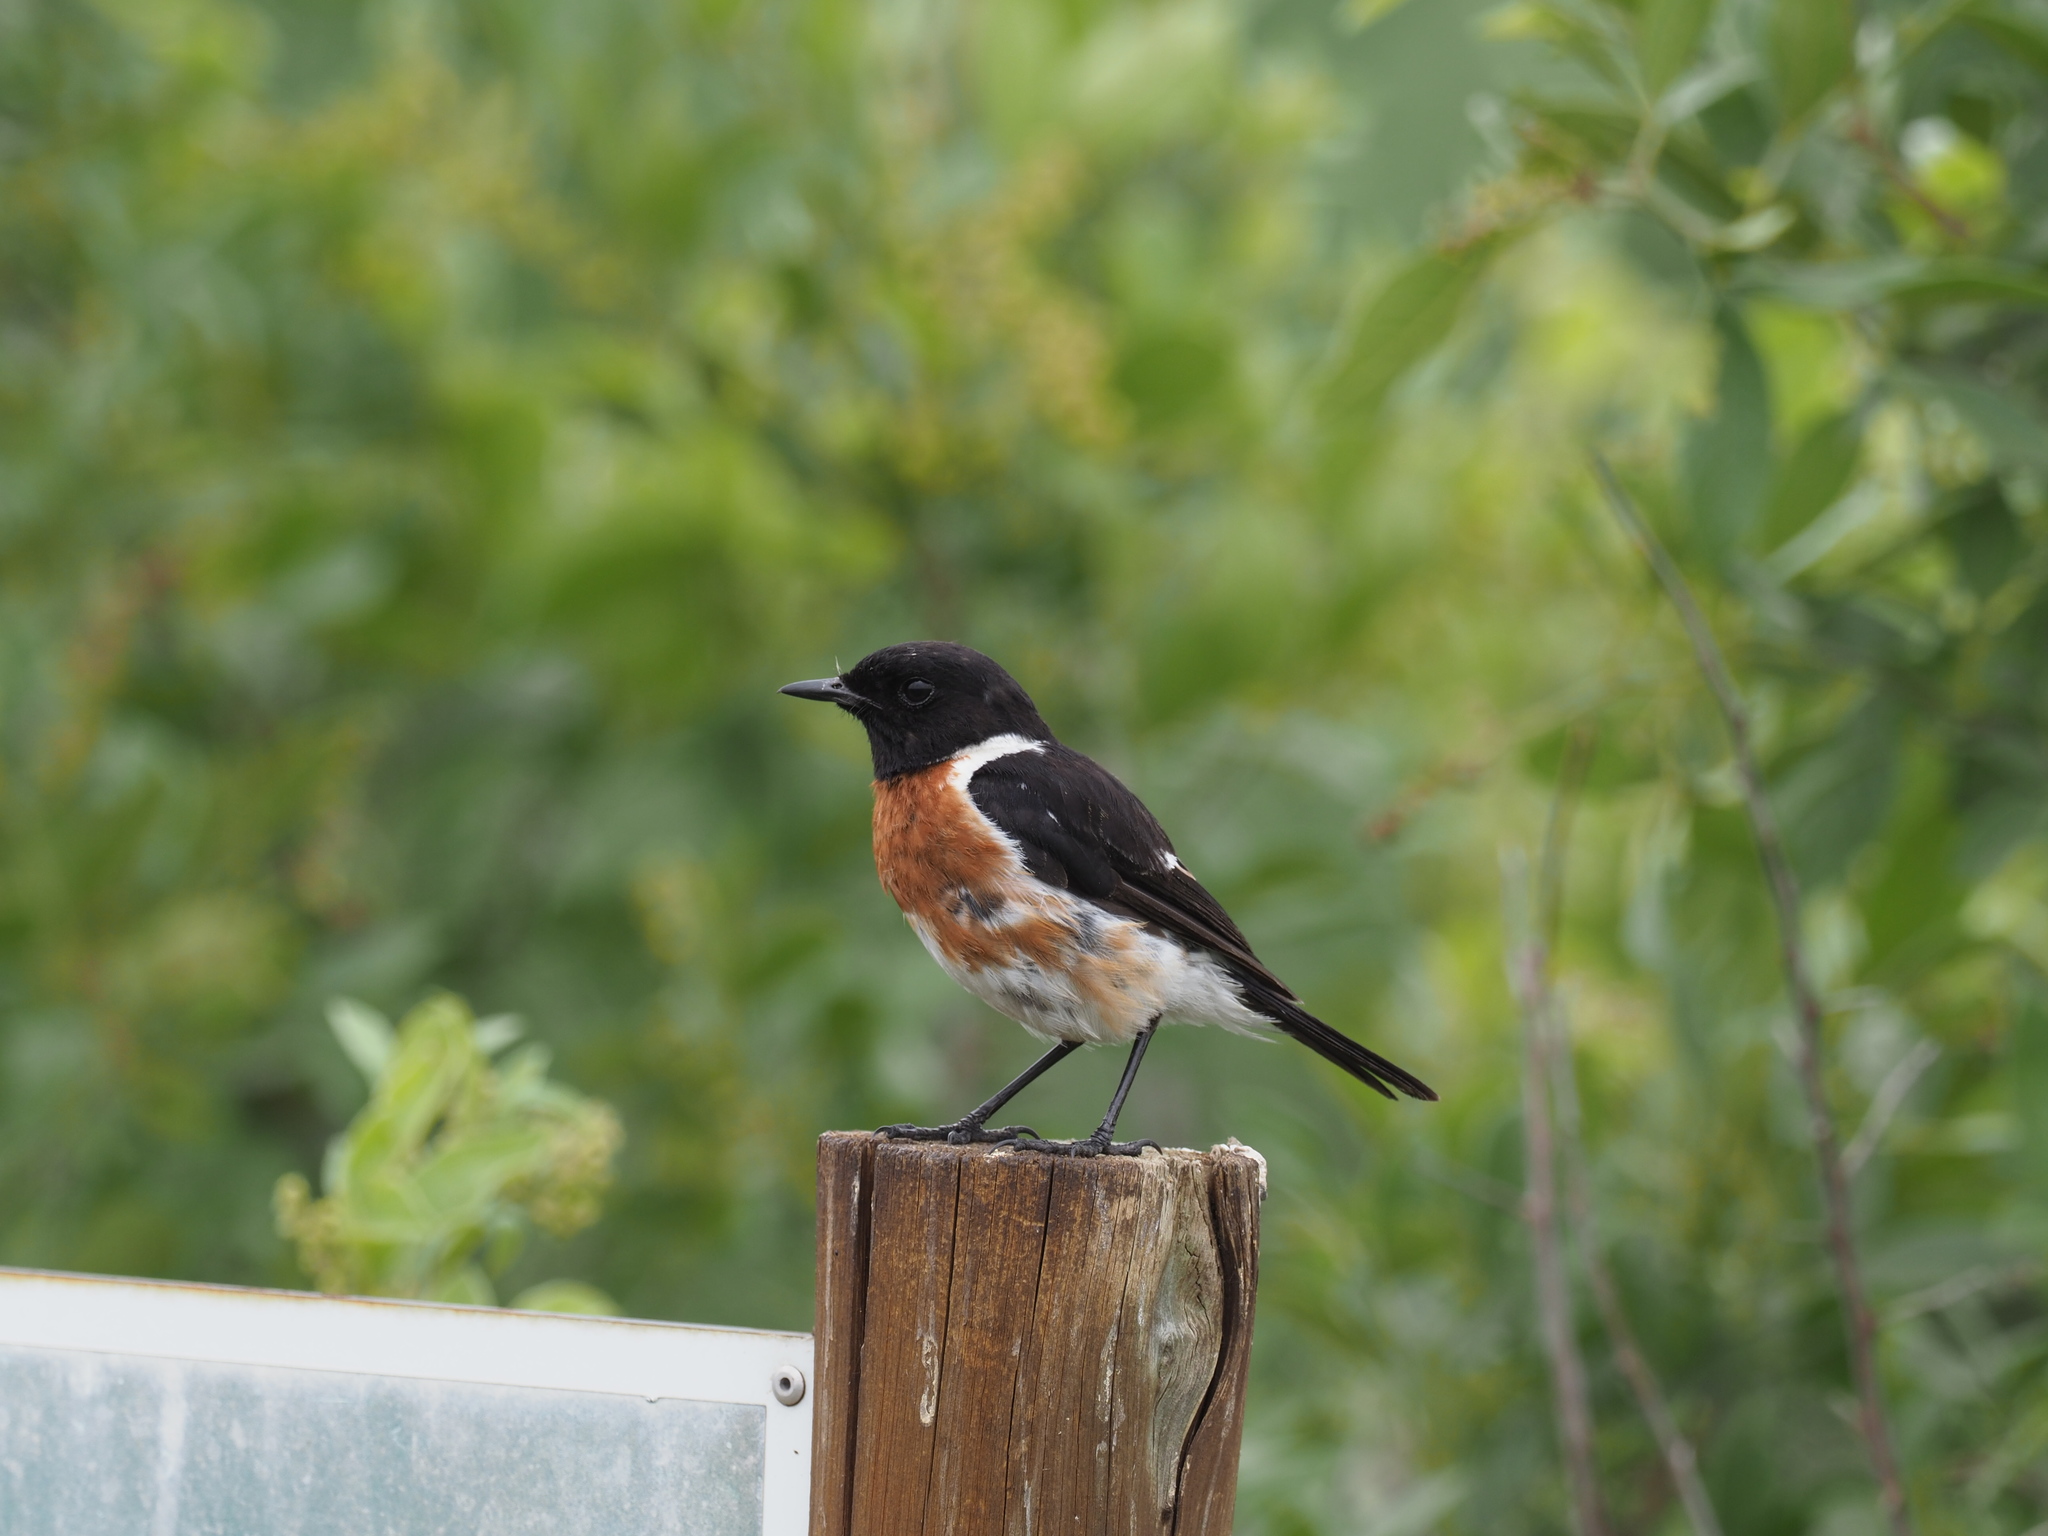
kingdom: Animalia
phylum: Chordata
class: Aves
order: Passeriformes
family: Muscicapidae
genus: Saxicola
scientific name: Saxicola torquatus
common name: African stonechat
